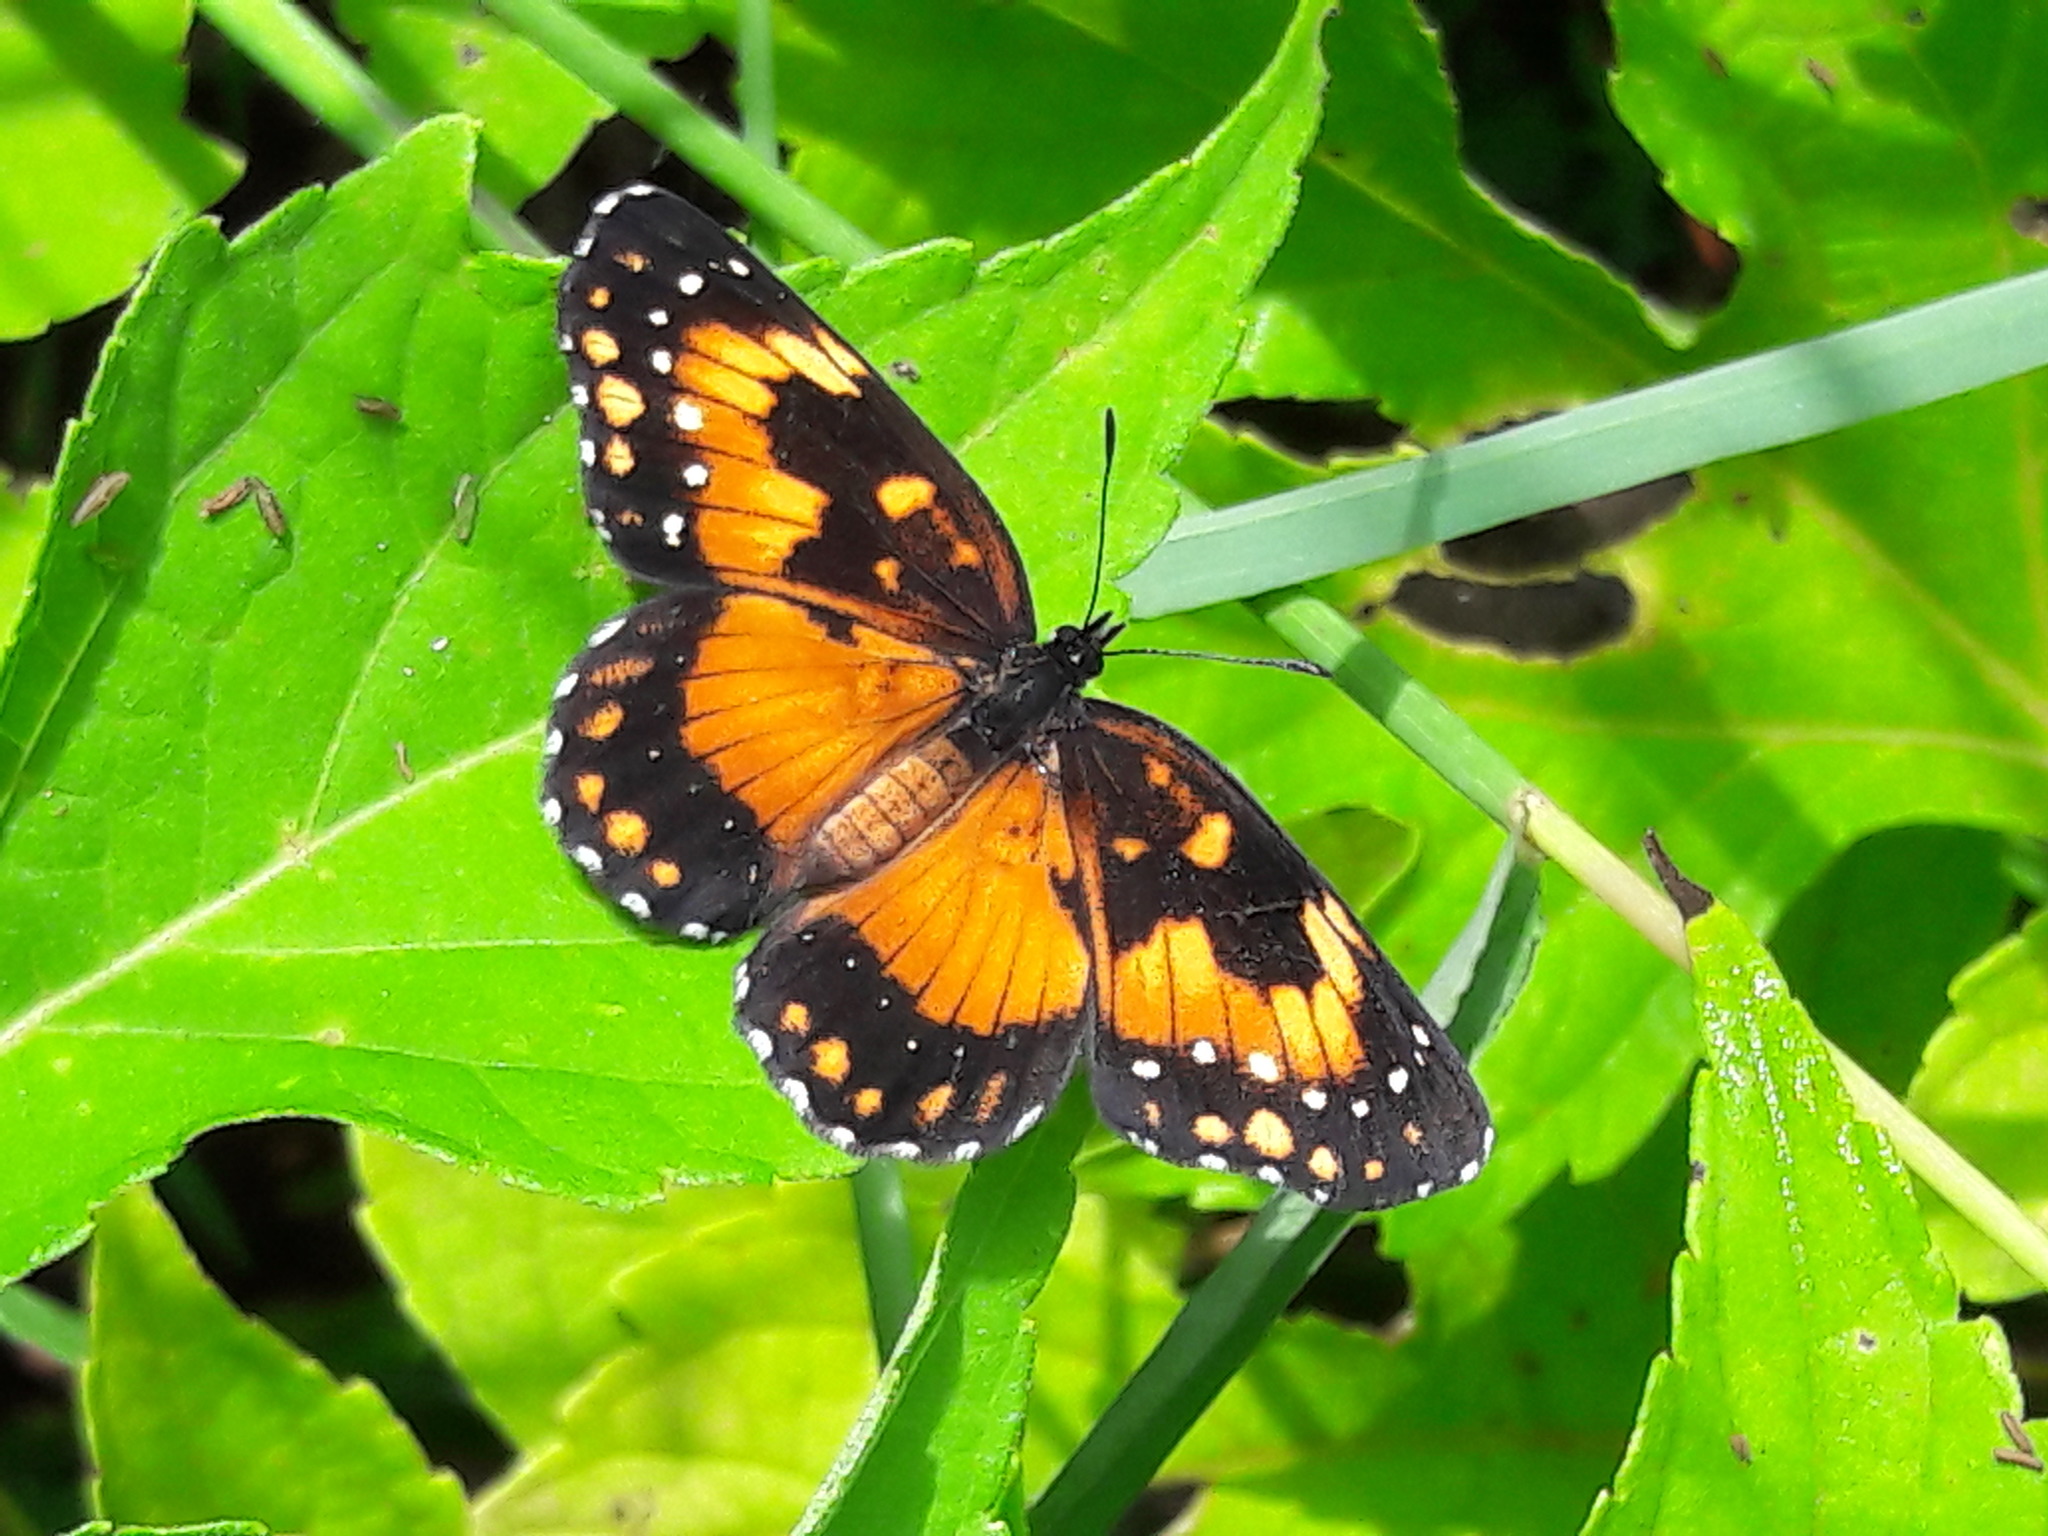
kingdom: Animalia
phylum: Arthropoda
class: Insecta
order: Lepidoptera
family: Nymphalidae
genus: Chlosyne
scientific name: Chlosyne lacinia
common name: Bordered patch
